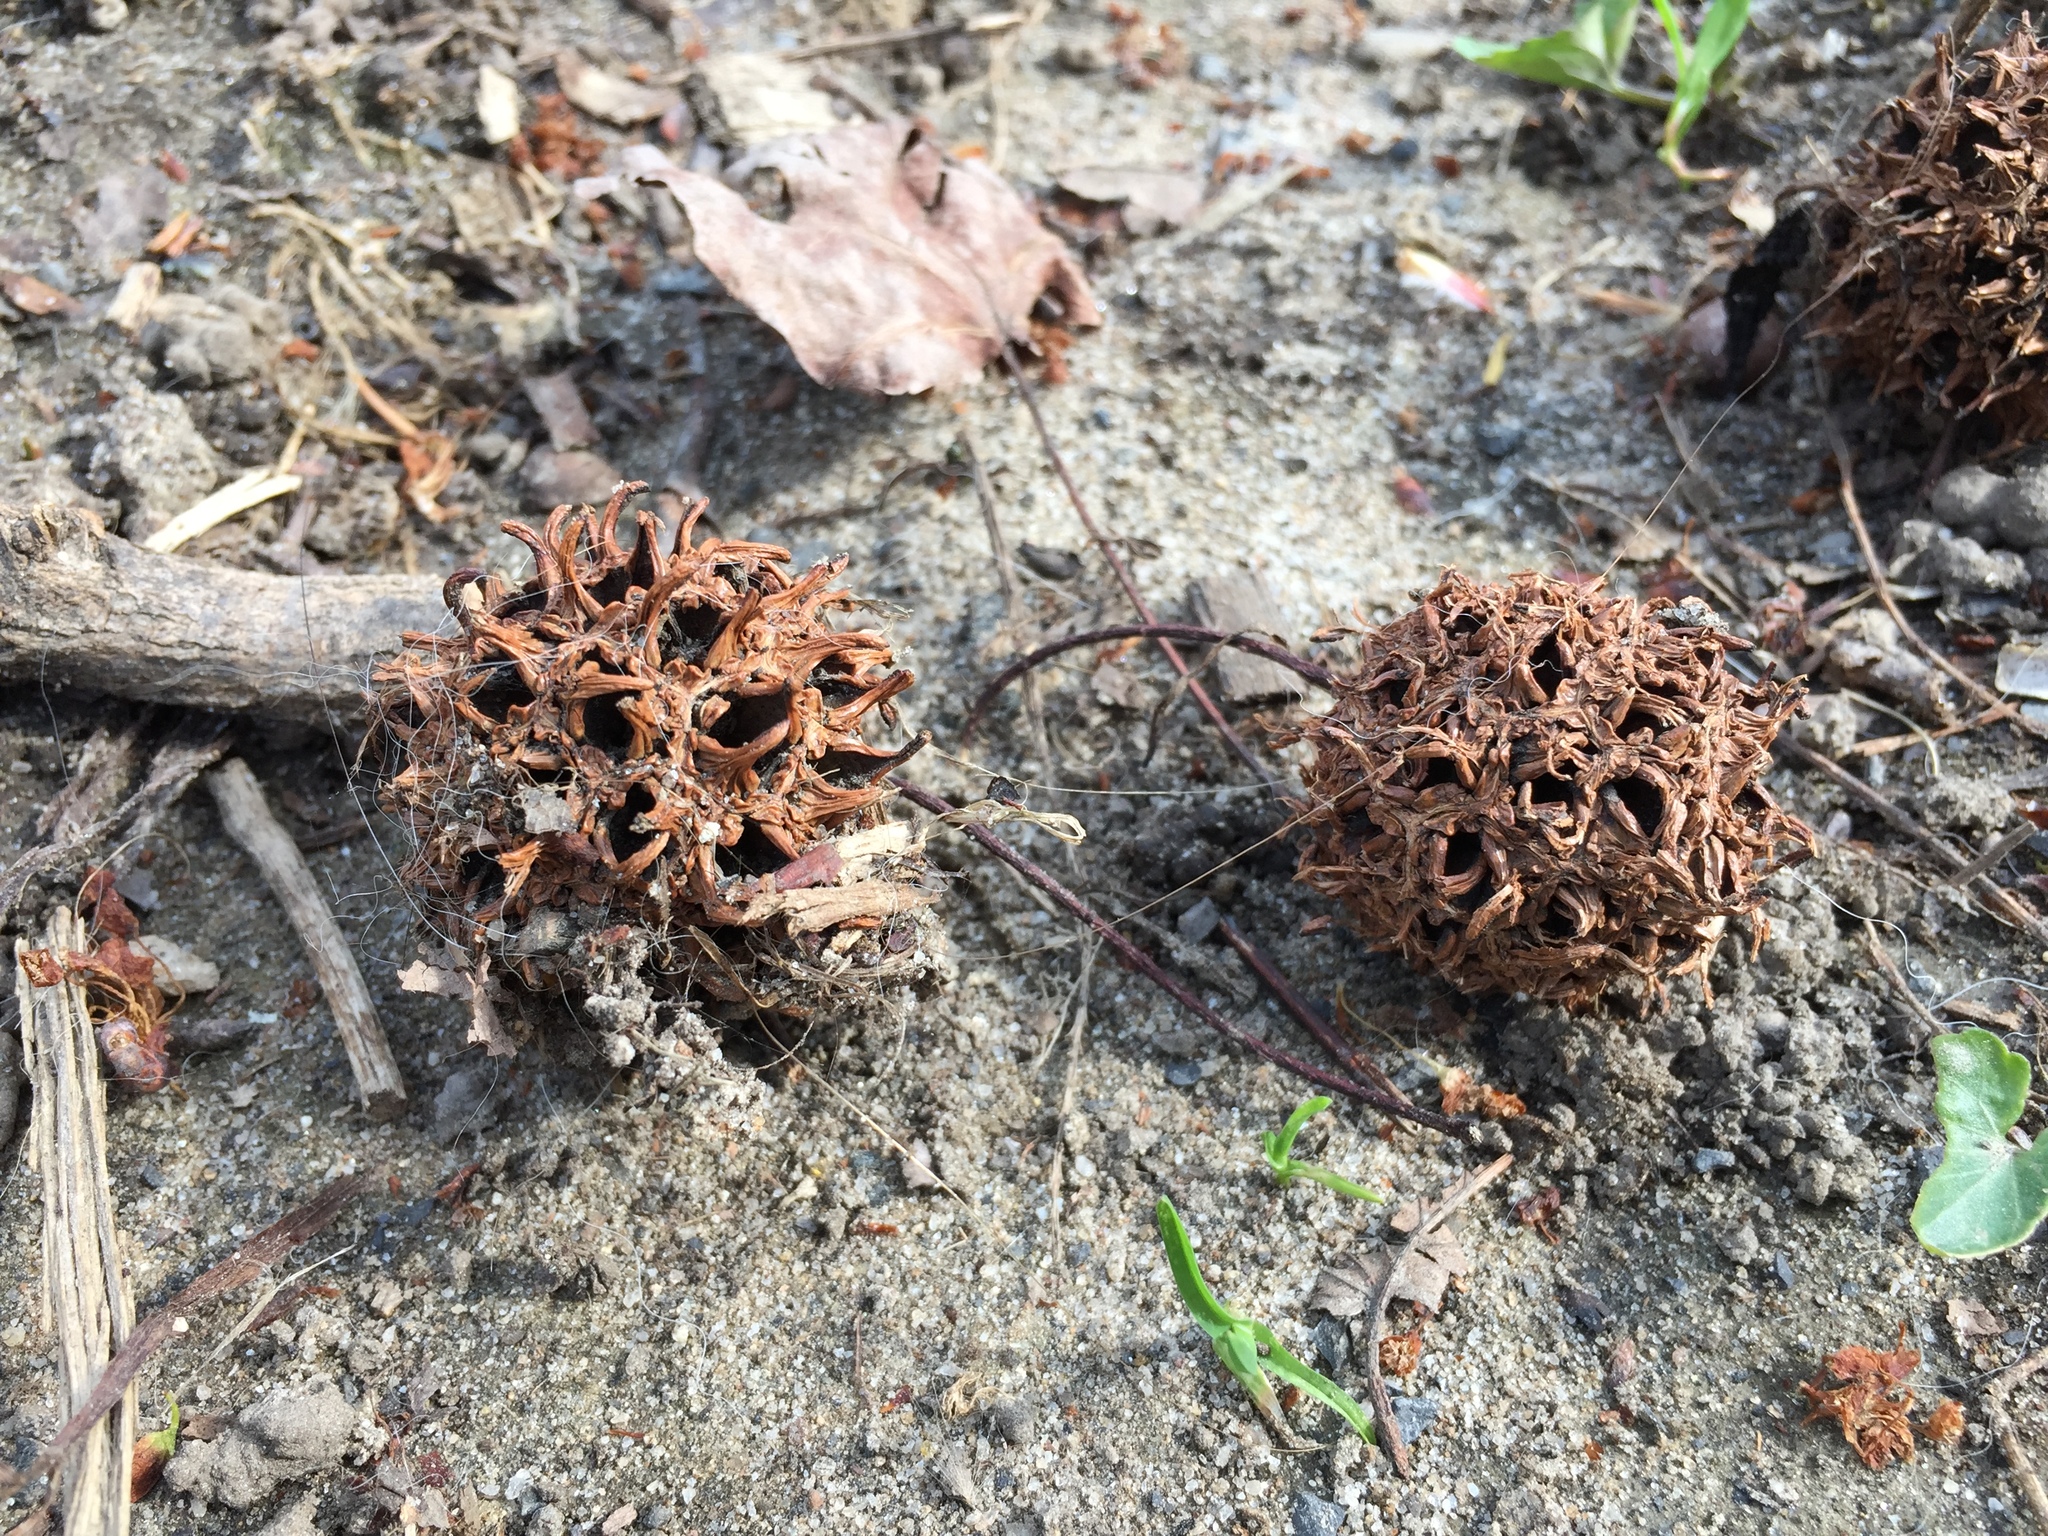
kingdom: Plantae
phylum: Tracheophyta
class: Magnoliopsida
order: Saxifragales
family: Altingiaceae
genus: Liquidambar
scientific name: Liquidambar styraciflua
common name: Sweet gum
